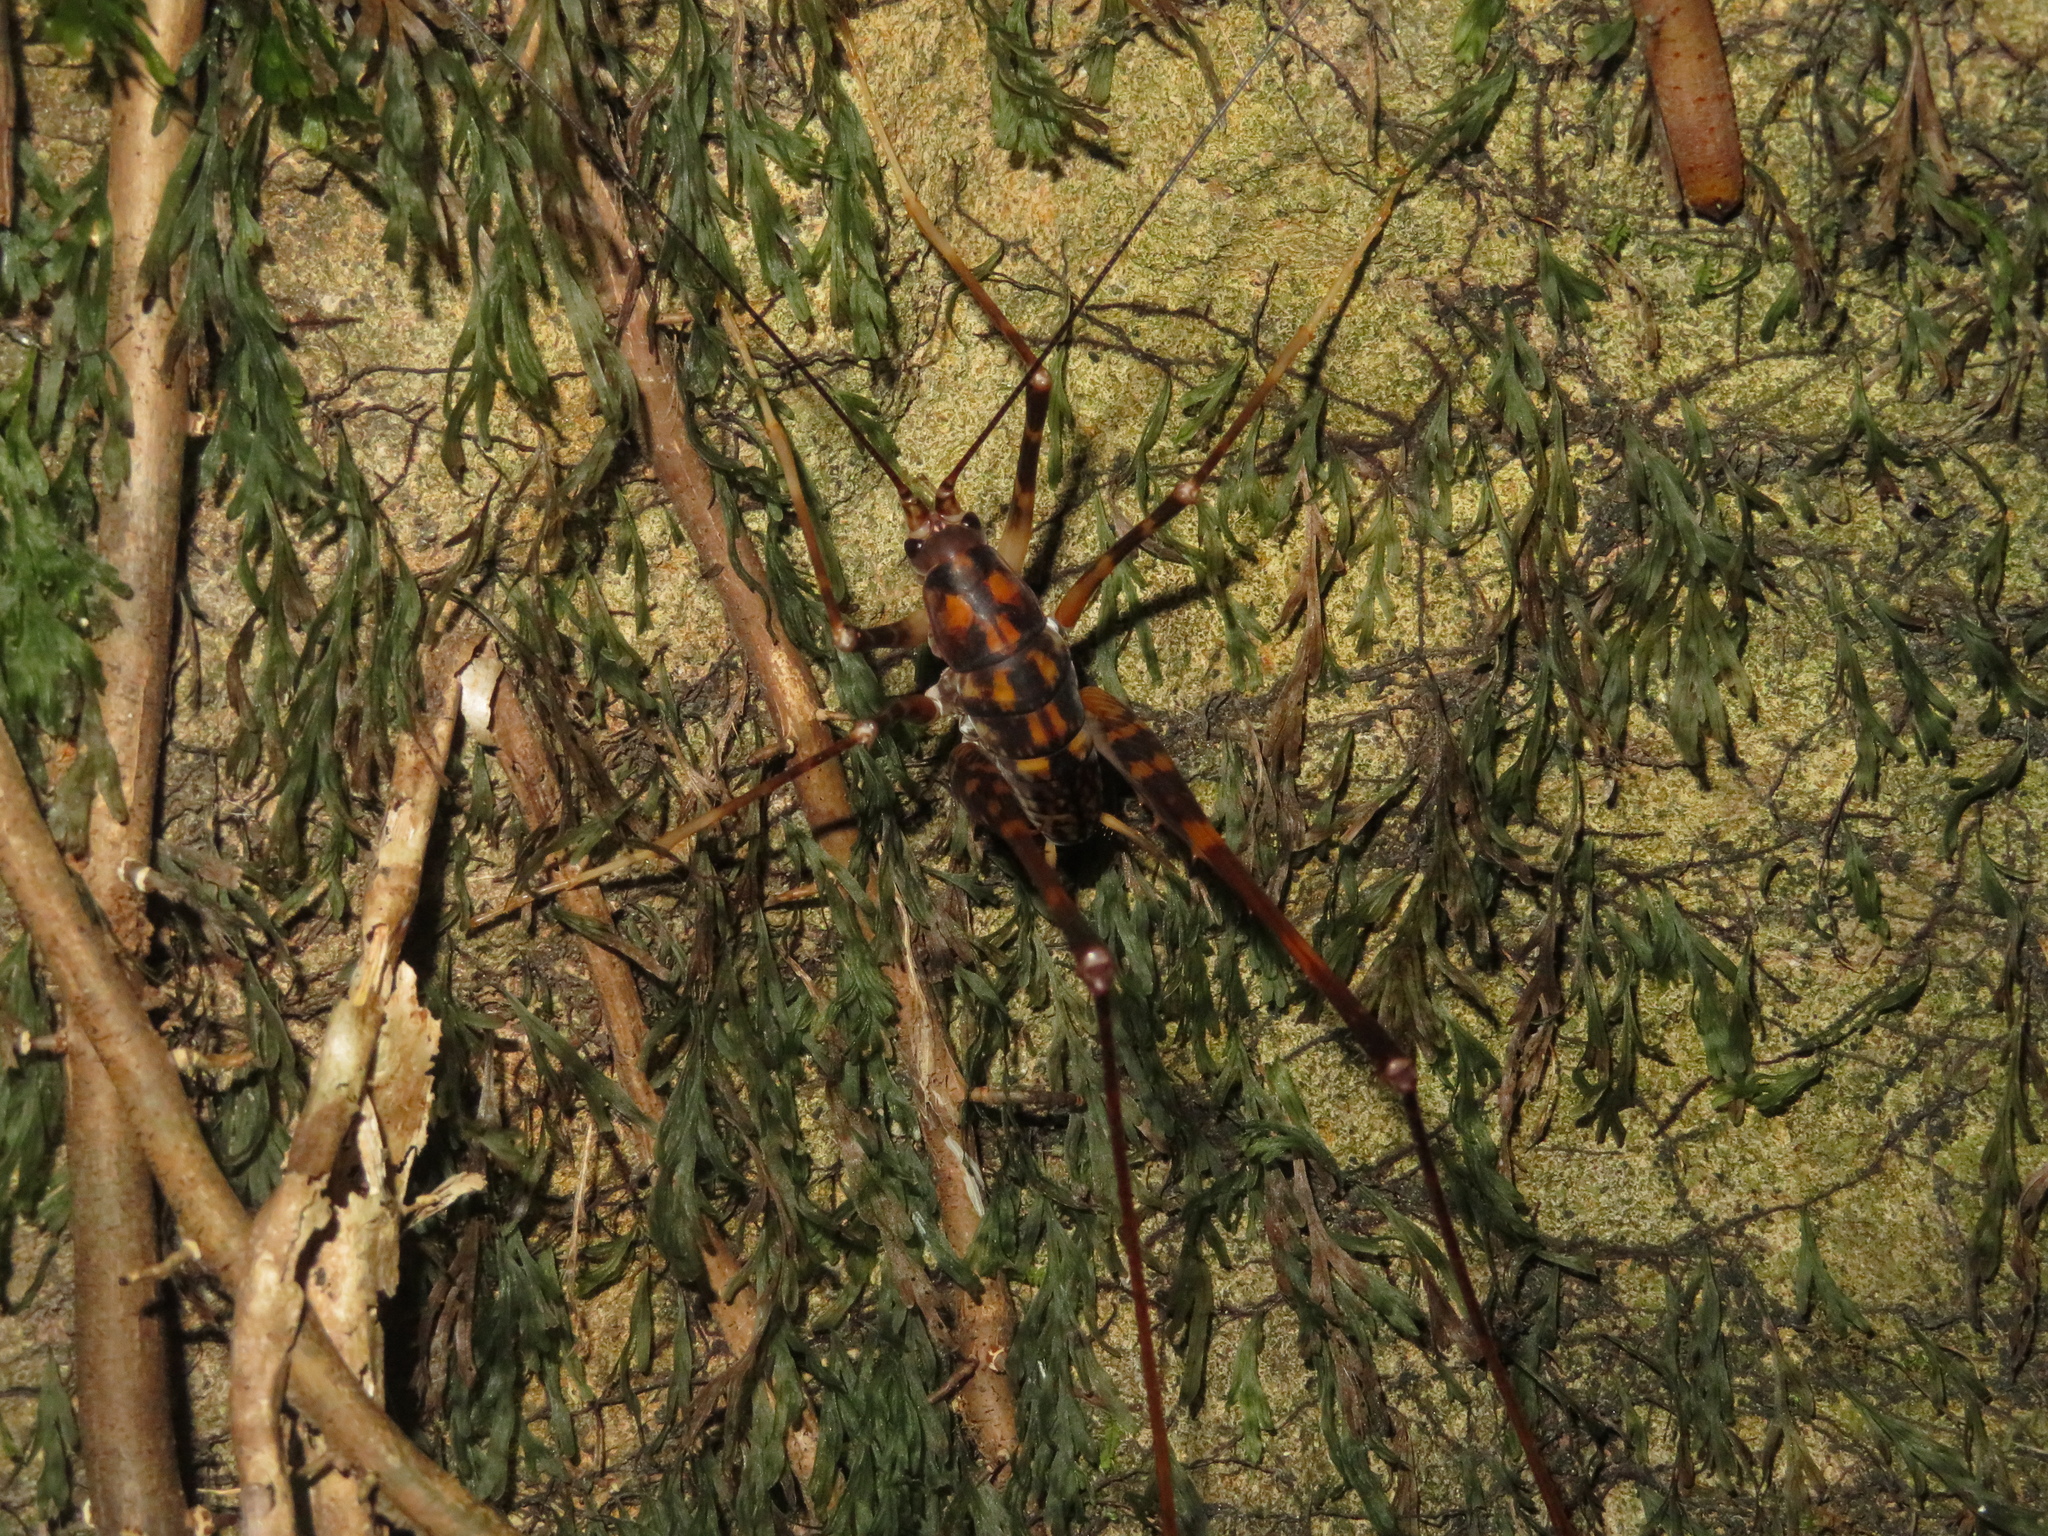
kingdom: Animalia
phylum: Arthropoda
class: Insecta
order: Orthoptera
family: Rhaphidophoridae
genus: Pachyrhamma
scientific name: Pachyrhamma cavernae
